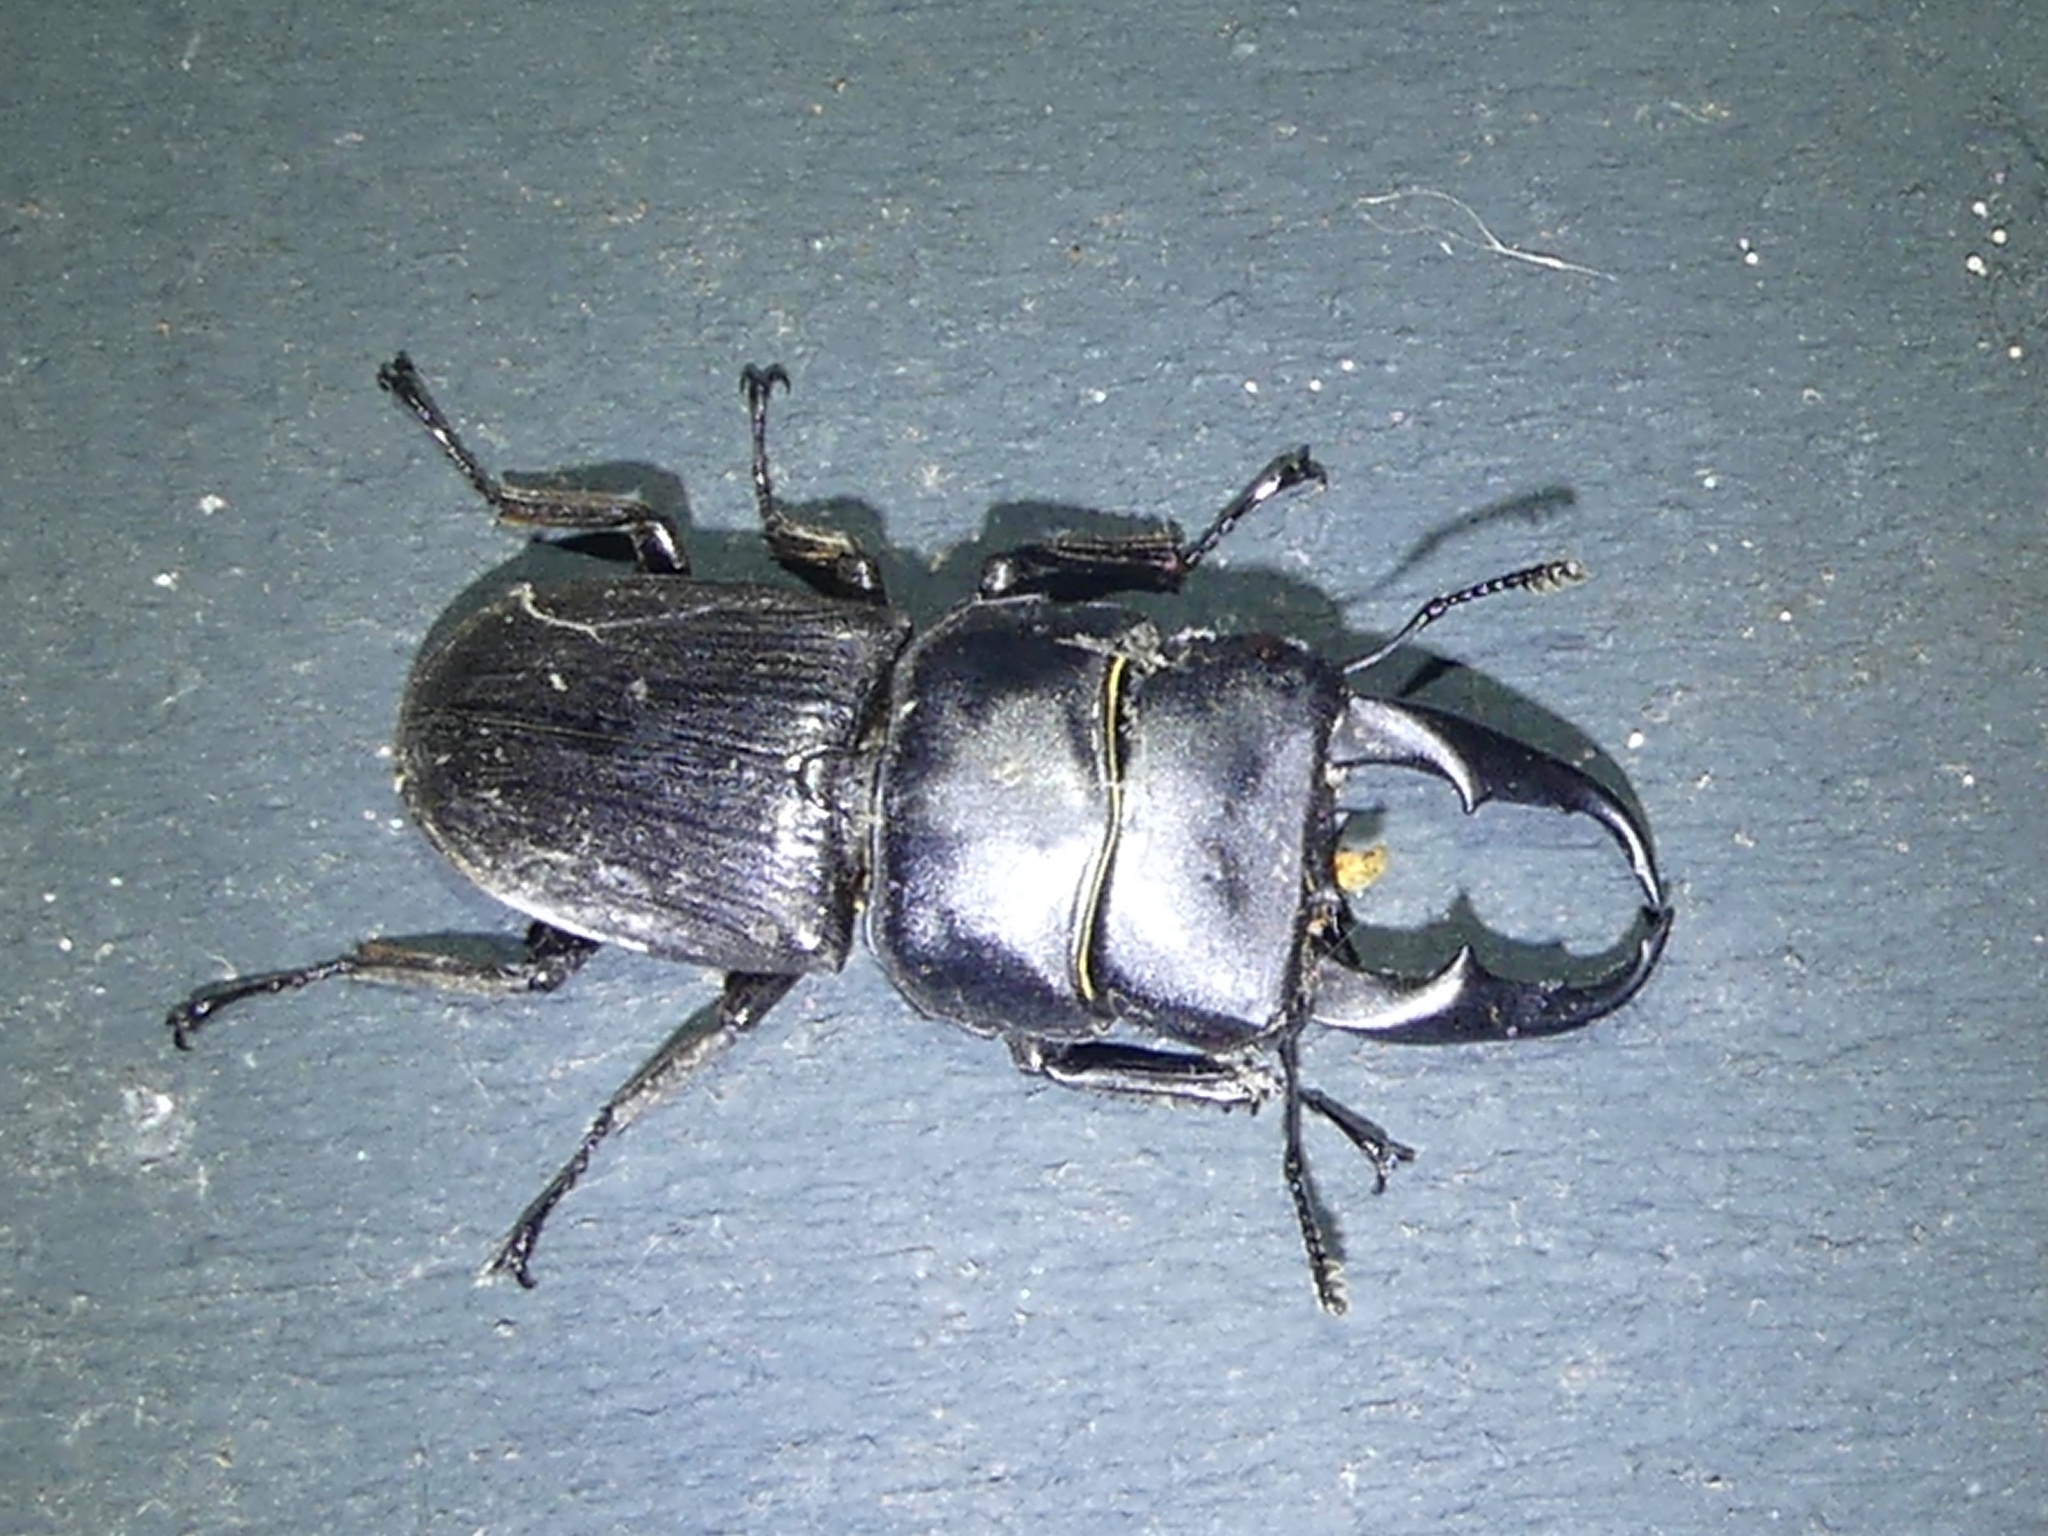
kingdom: Animalia
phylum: Arthropoda
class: Insecta
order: Coleoptera
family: Lucanidae
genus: Dorcus
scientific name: Dorcus reichei
